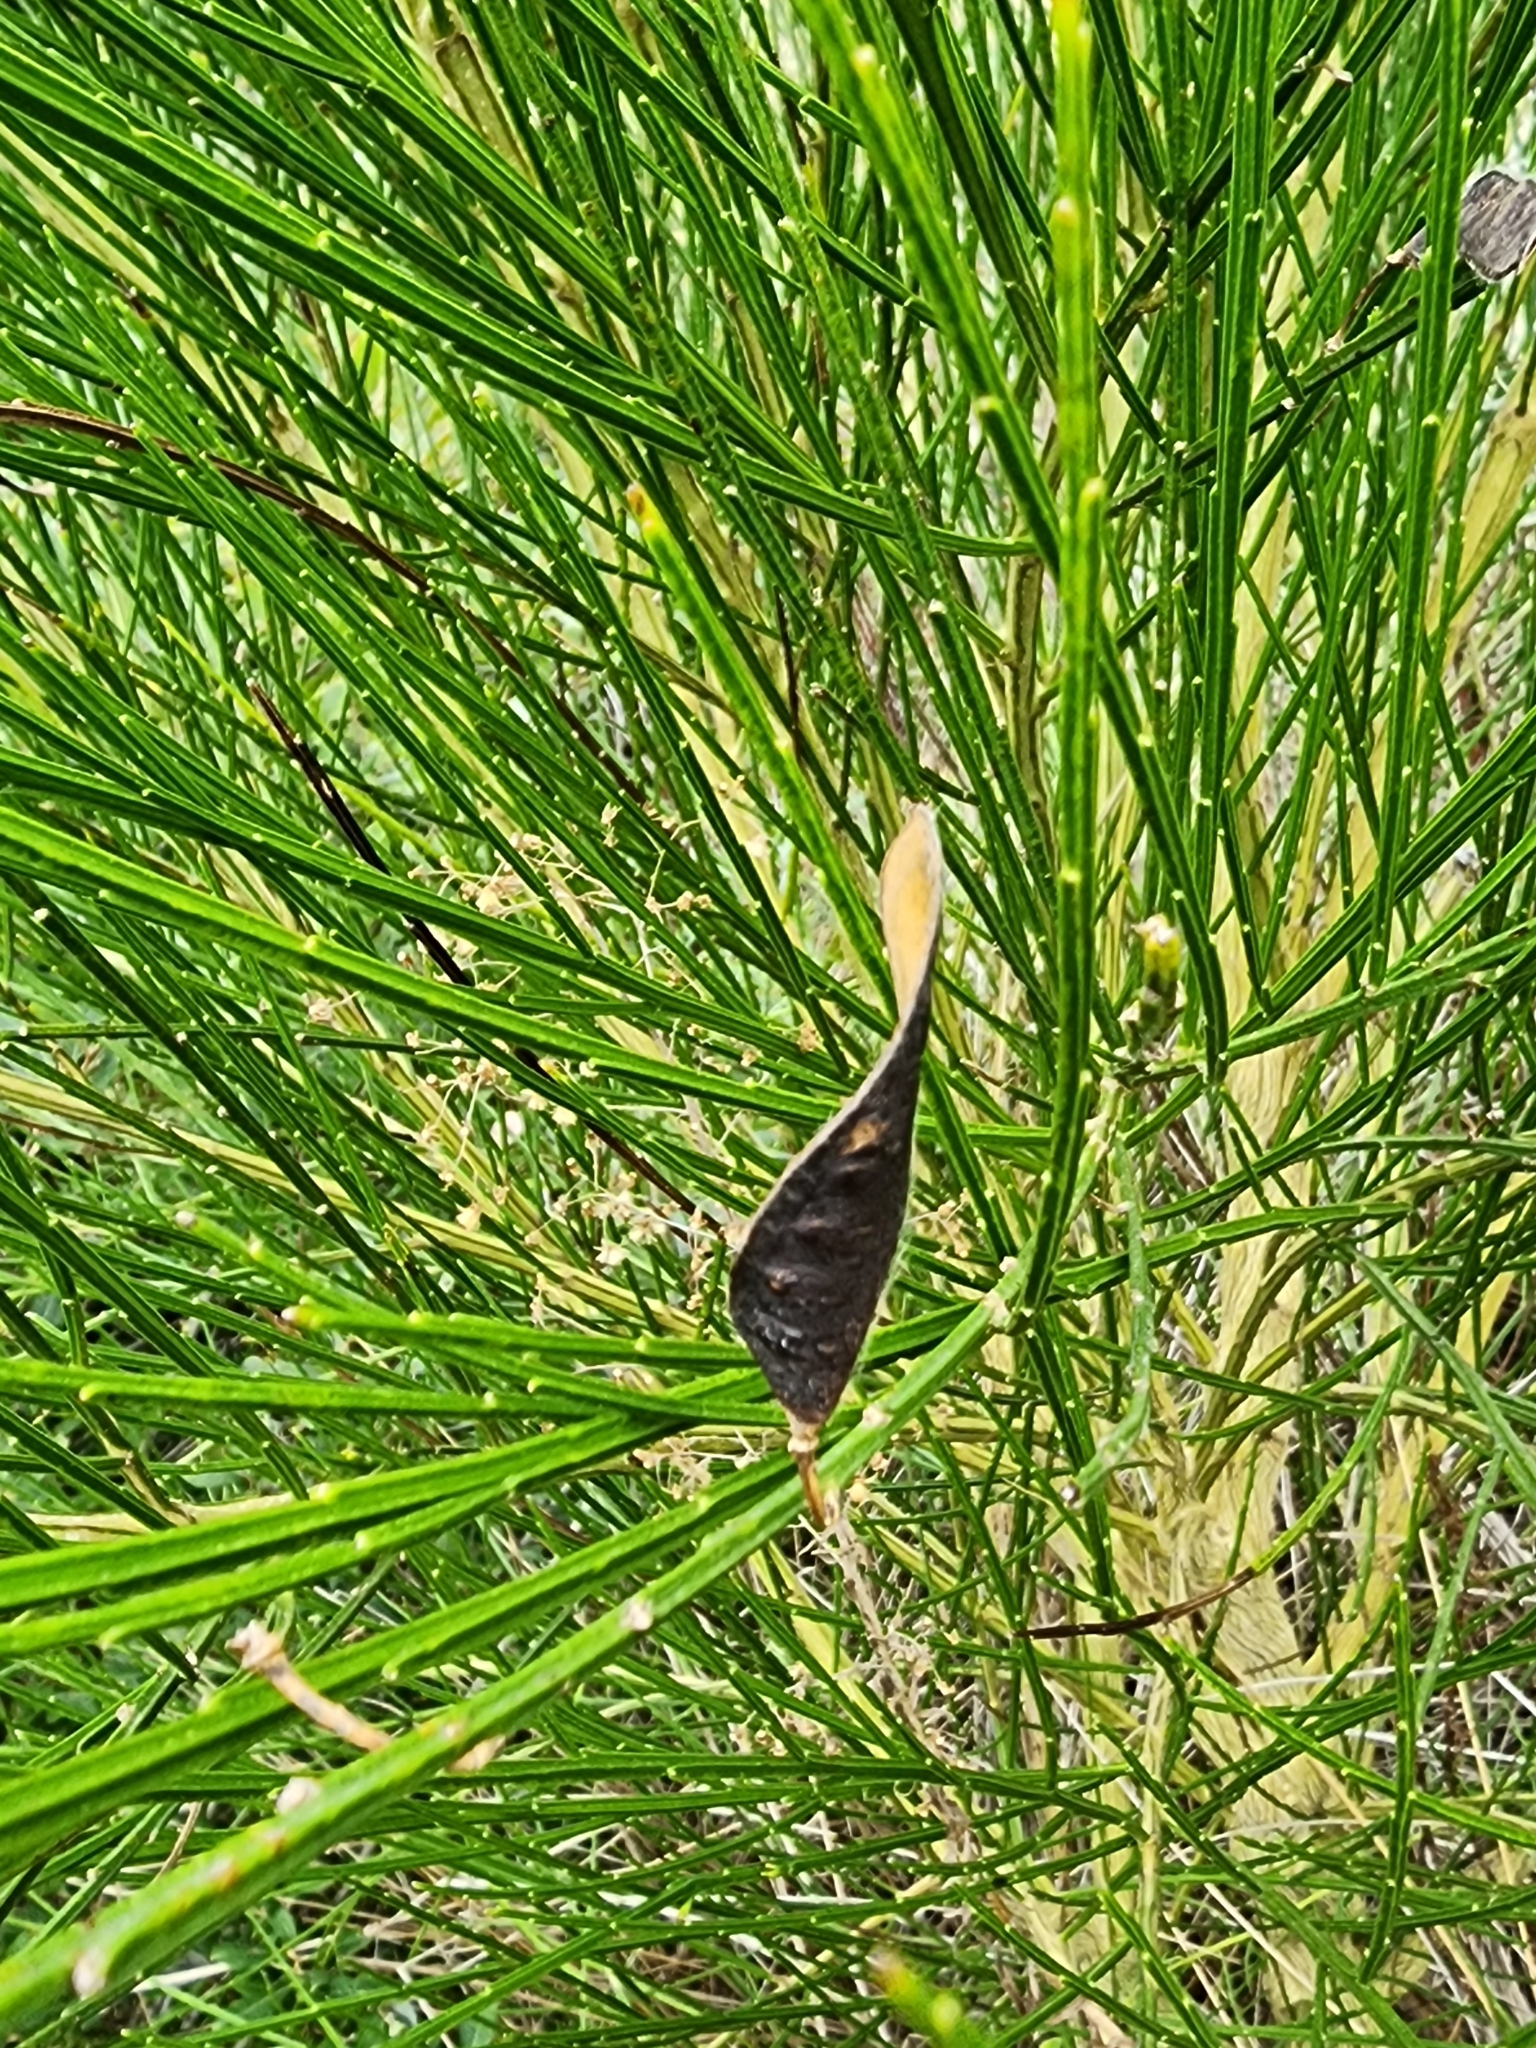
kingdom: Plantae
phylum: Tracheophyta
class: Magnoliopsida
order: Fabales
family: Fabaceae
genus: Cytisus
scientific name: Cytisus scoparius
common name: Scotch broom
